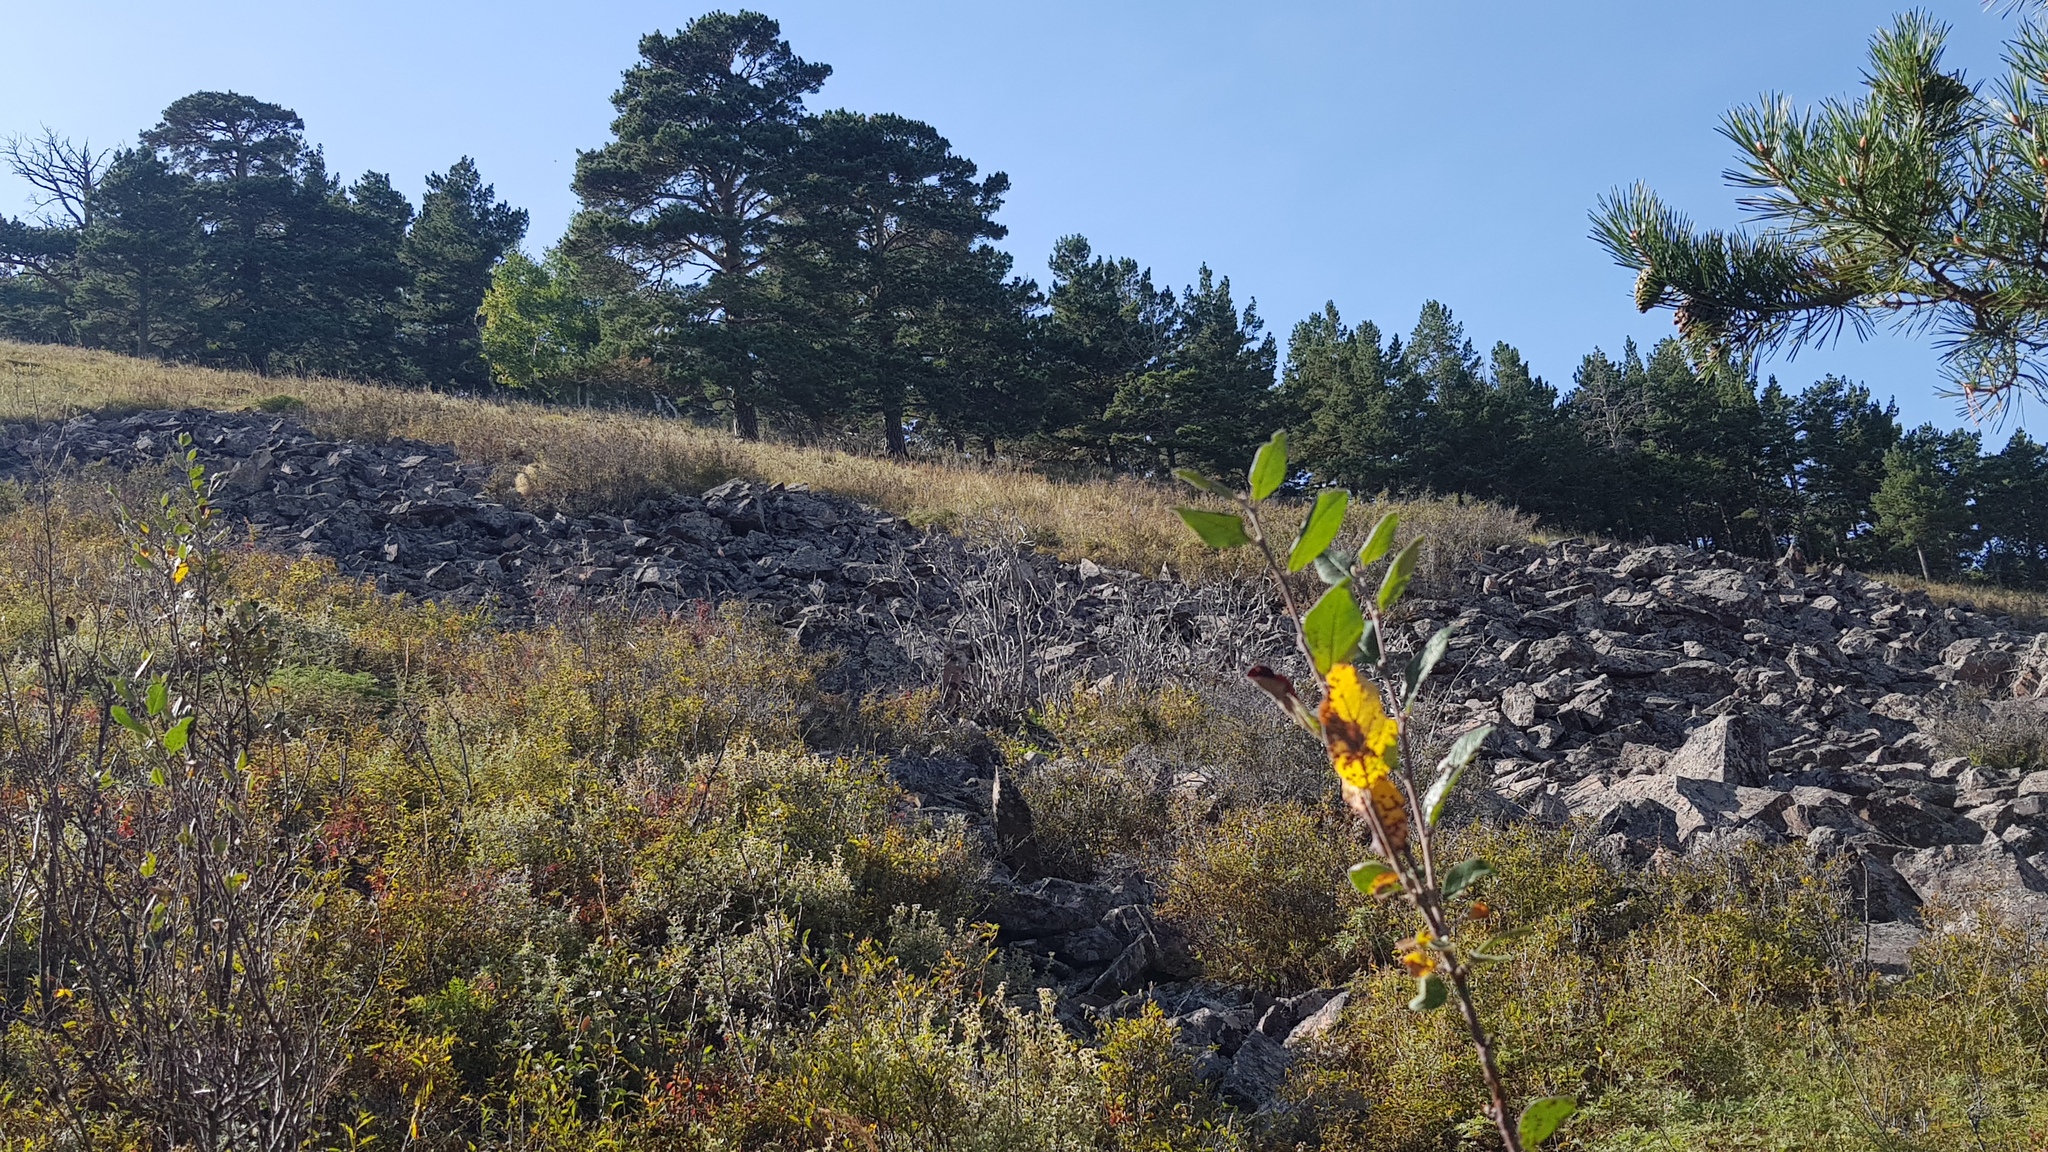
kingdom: Plantae
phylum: Tracheophyta
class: Pinopsida
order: Pinales
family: Pinaceae
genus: Pinus
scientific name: Pinus sylvestris
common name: Scots pine
